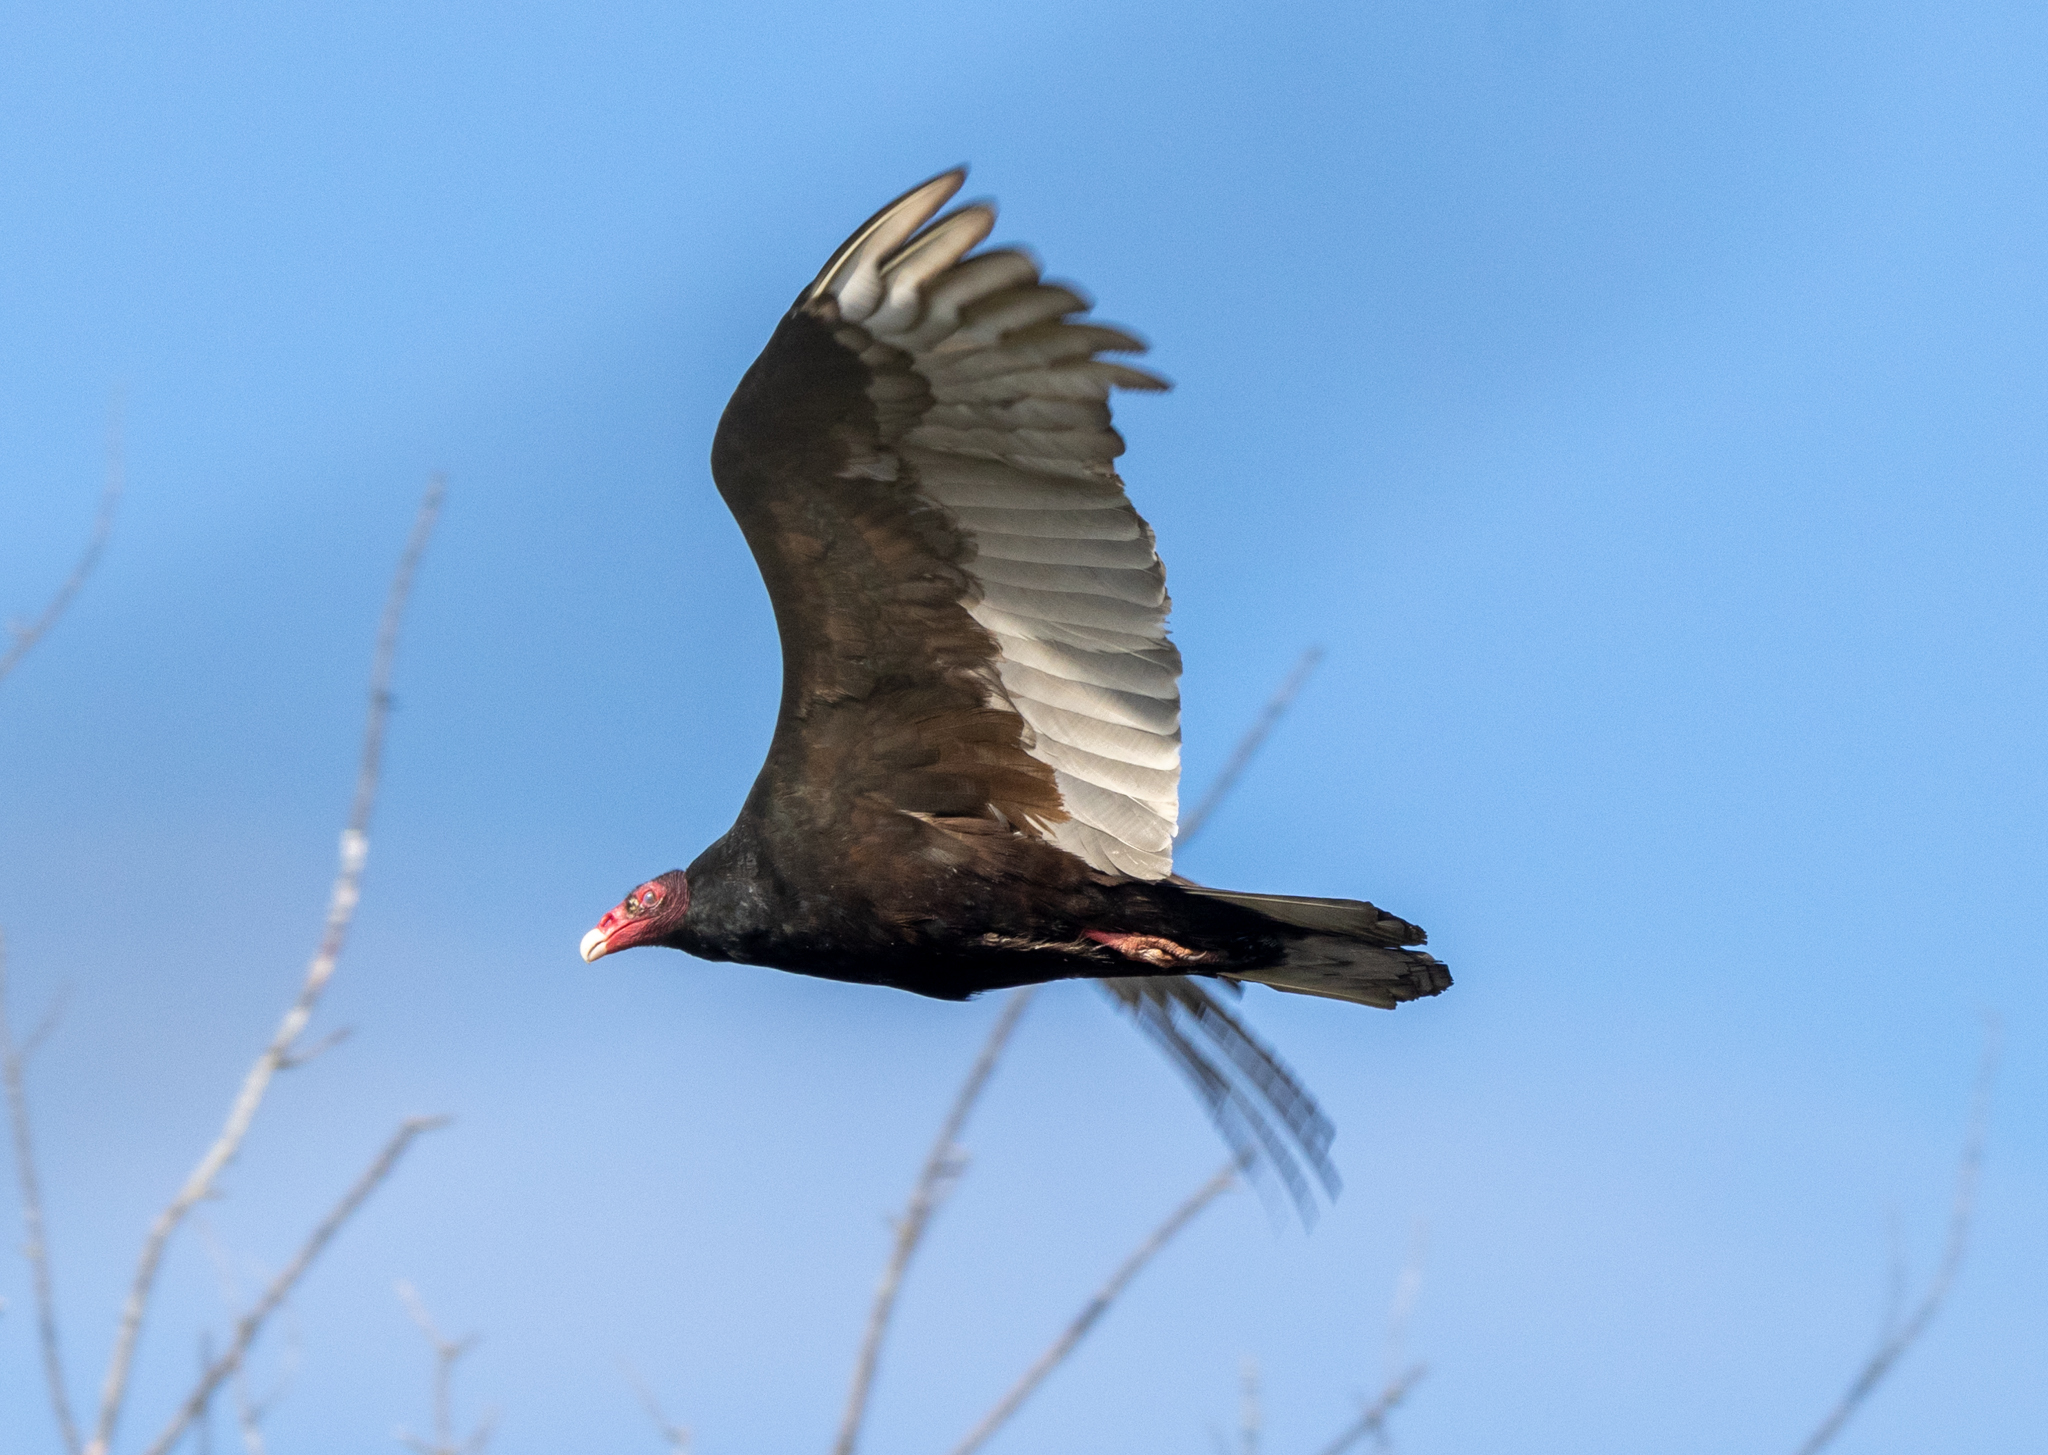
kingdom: Animalia
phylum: Chordata
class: Aves
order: Accipitriformes
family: Cathartidae
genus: Cathartes
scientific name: Cathartes aura
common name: Turkey vulture
